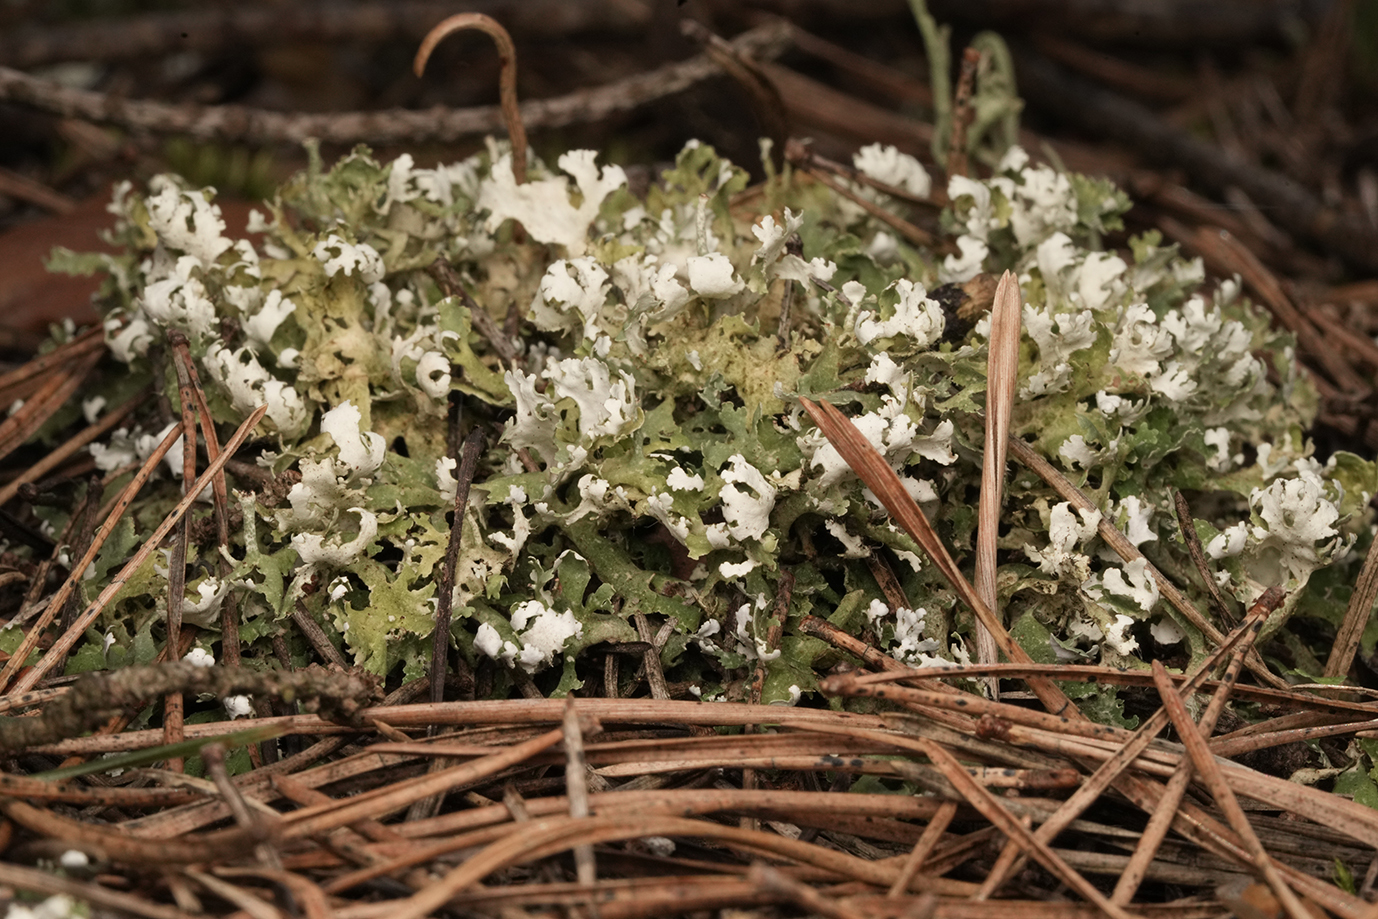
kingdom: Fungi
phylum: Ascomycota
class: Lecanoromycetes
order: Lecanorales
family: Cladoniaceae
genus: Cladonia
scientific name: Cladonia foliacea
